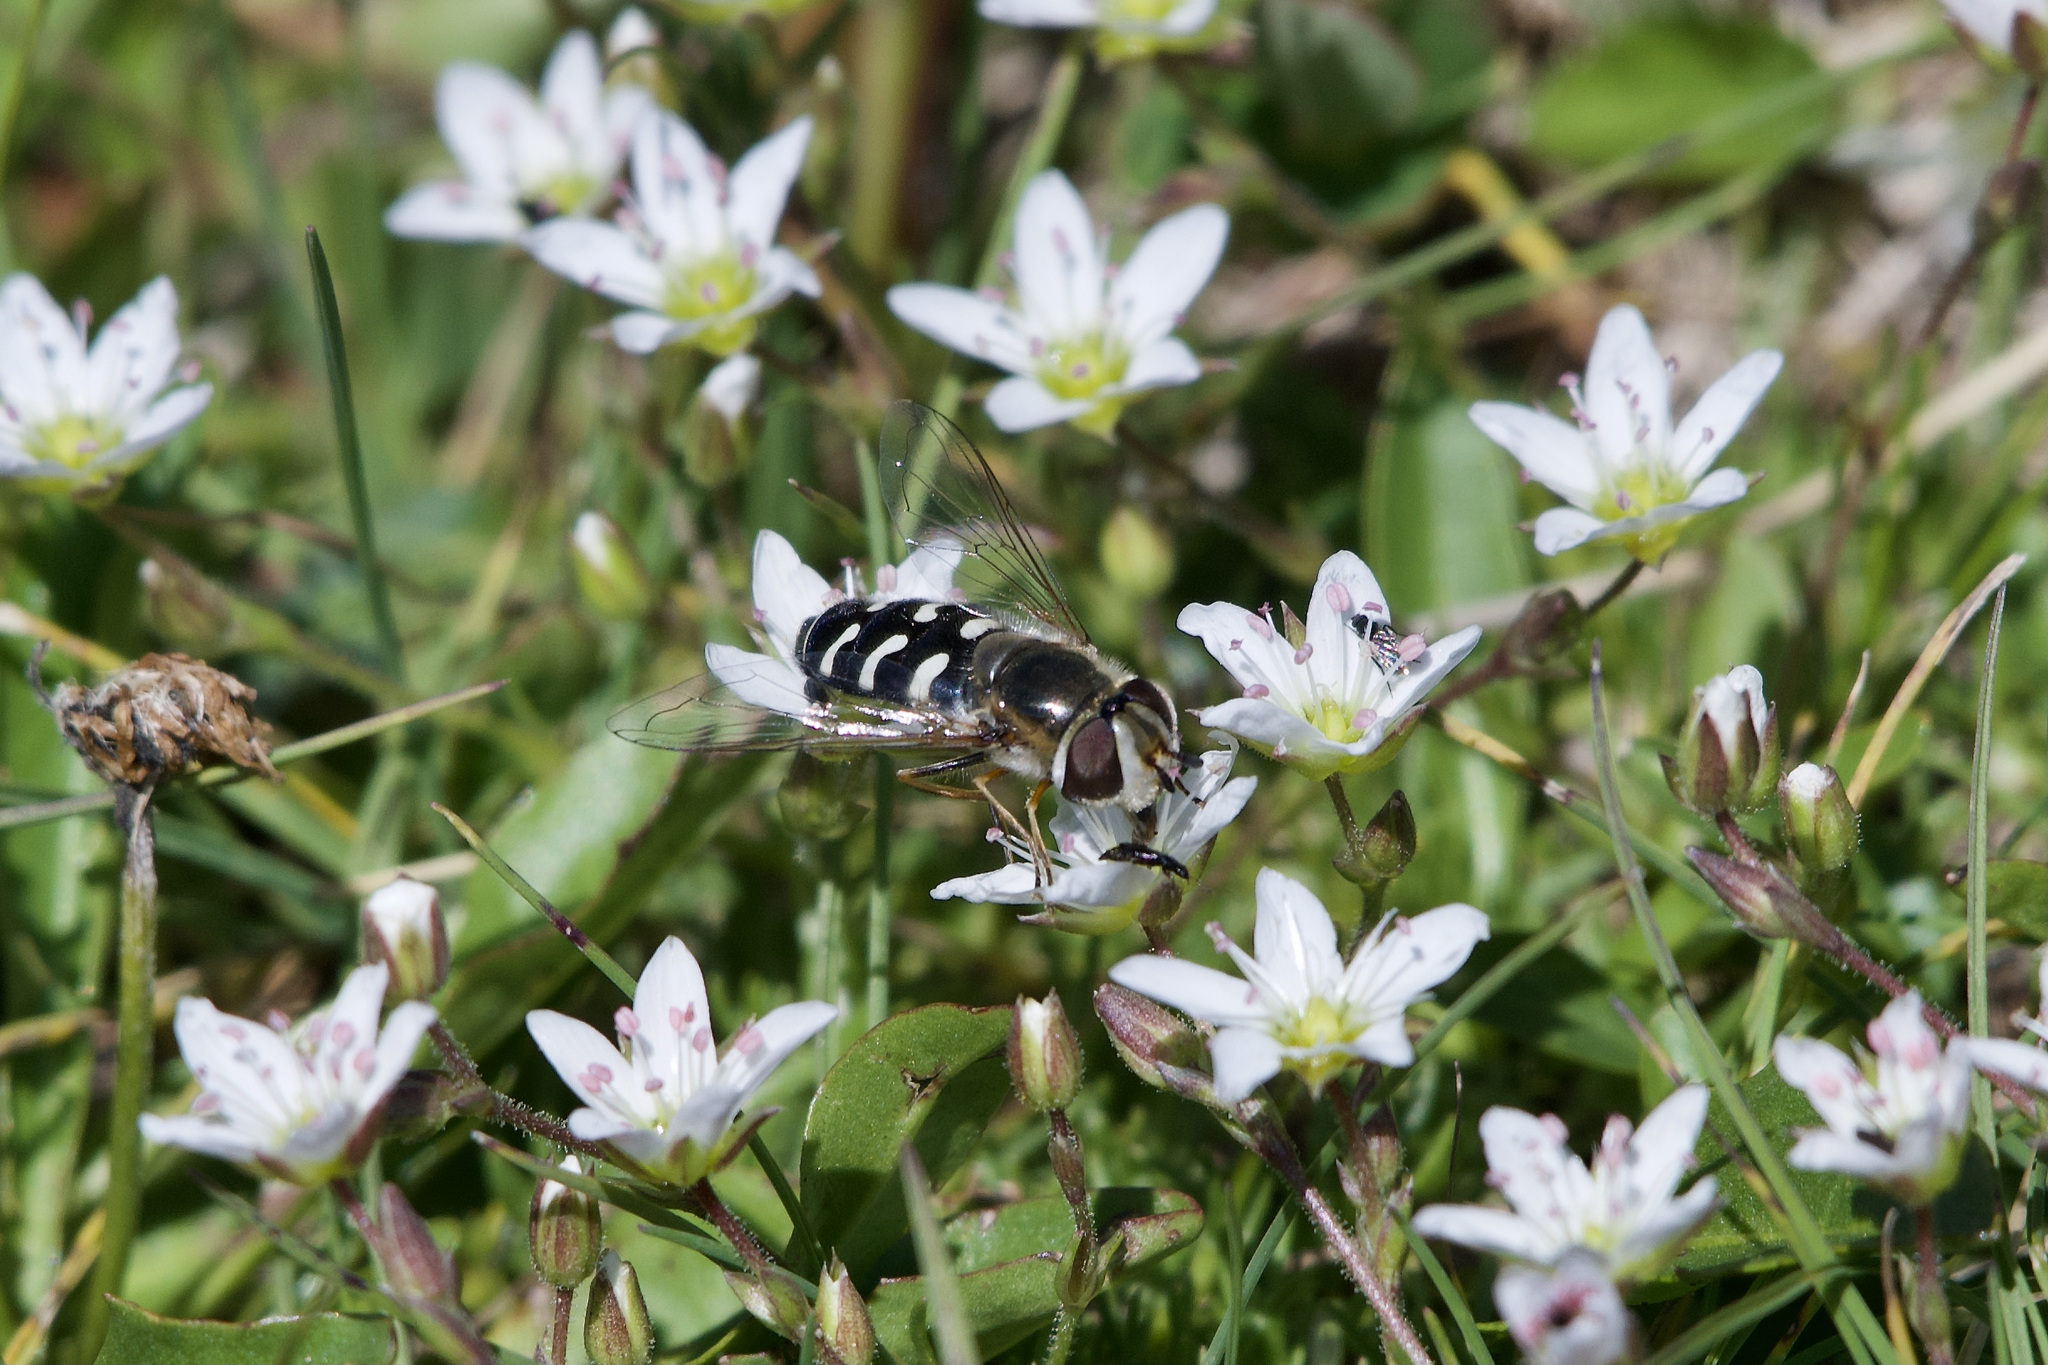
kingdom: Animalia
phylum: Arthropoda
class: Insecta
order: Diptera
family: Syrphidae
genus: Scaeva
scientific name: Scaeva pyrastri
